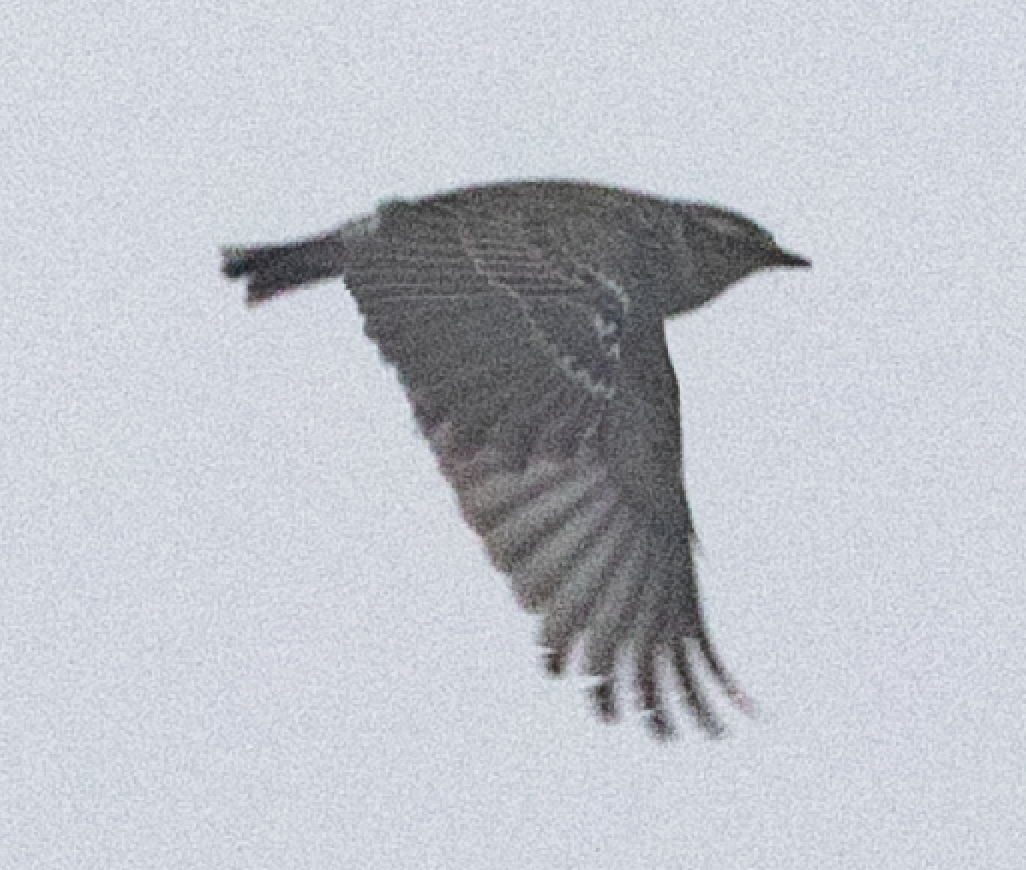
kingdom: Animalia
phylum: Chordata
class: Aves
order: Passeriformes
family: Alaudidae
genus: Lullula
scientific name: Lullula arborea
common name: Woodlark
